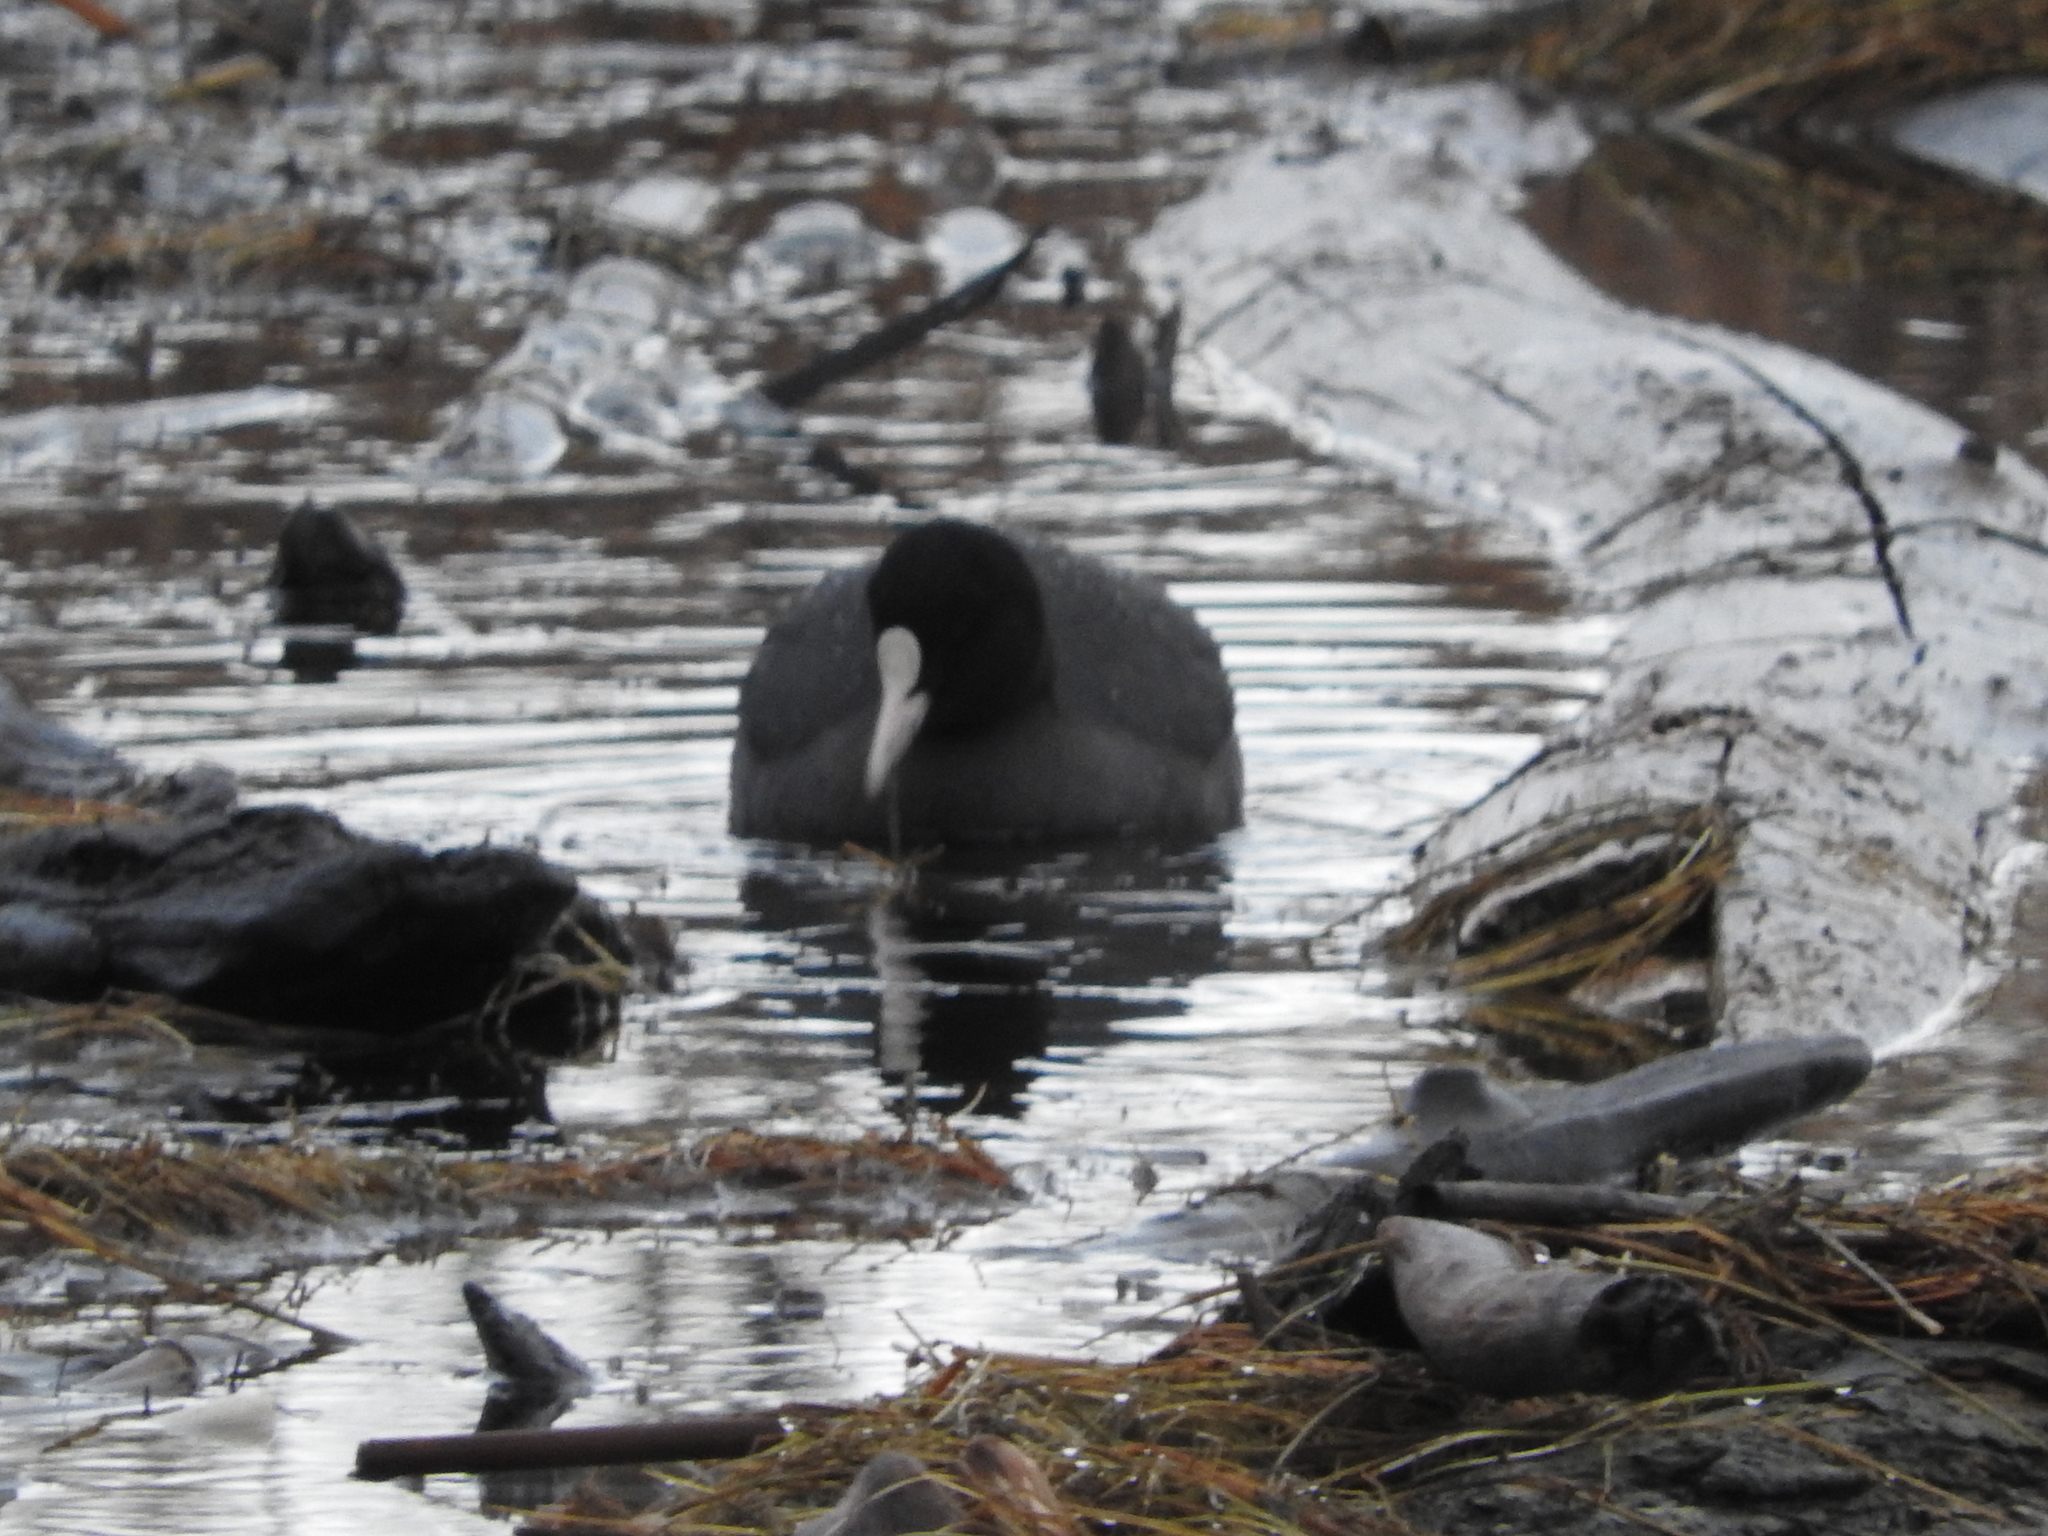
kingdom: Animalia
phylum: Chordata
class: Aves
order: Gruiformes
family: Rallidae
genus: Fulica
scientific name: Fulica atra
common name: Eurasian coot
